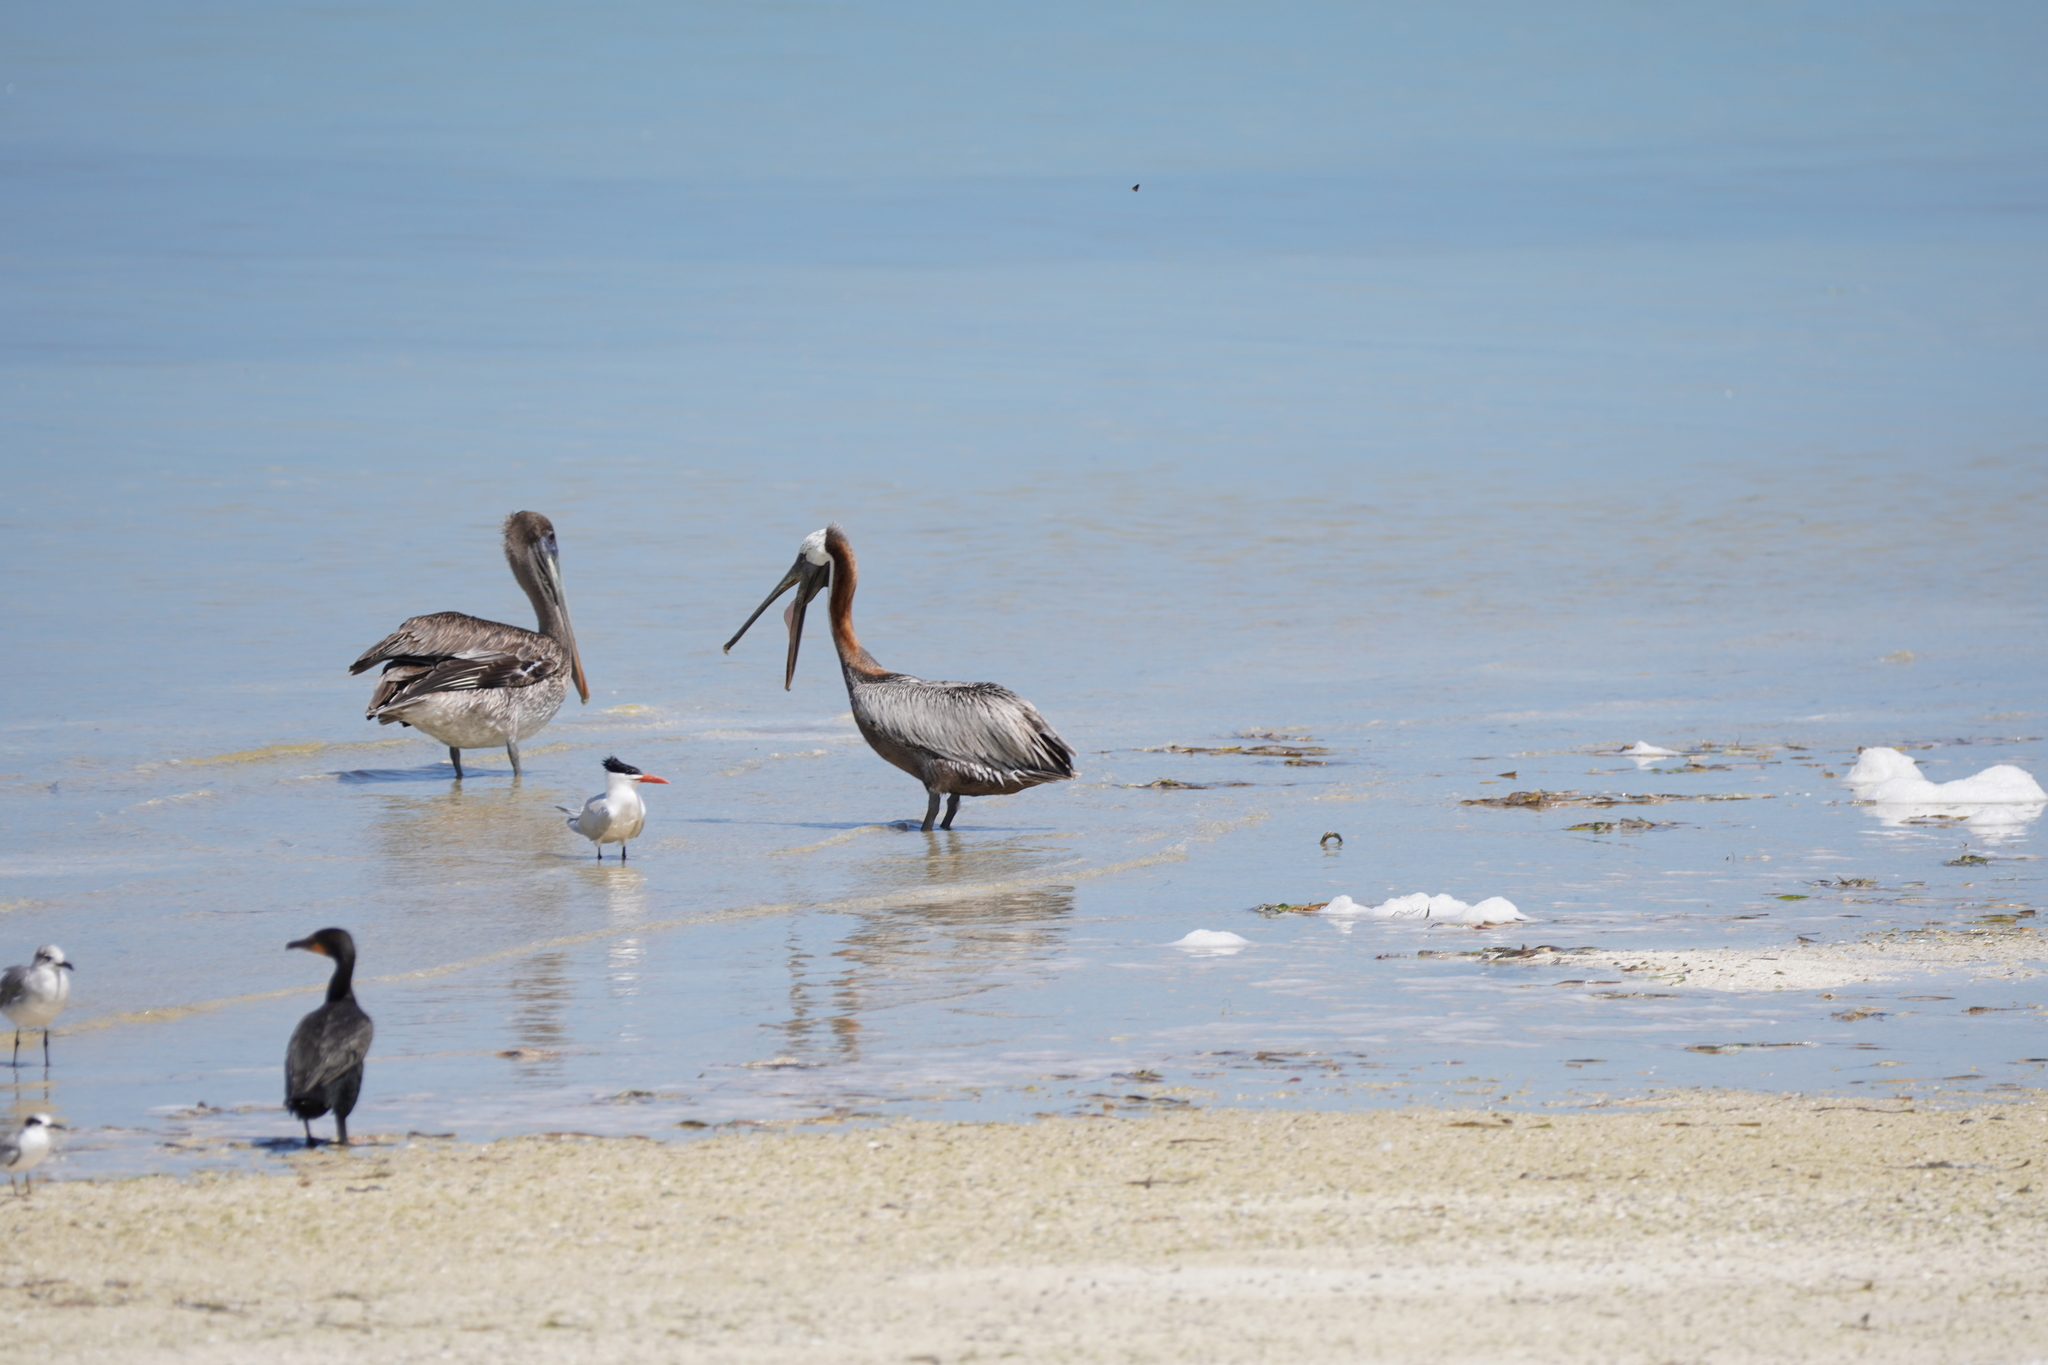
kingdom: Animalia
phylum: Chordata
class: Aves
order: Pelecaniformes
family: Pelecanidae
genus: Pelecanus
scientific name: Pelecanus occidentalis
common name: Brown pelican
